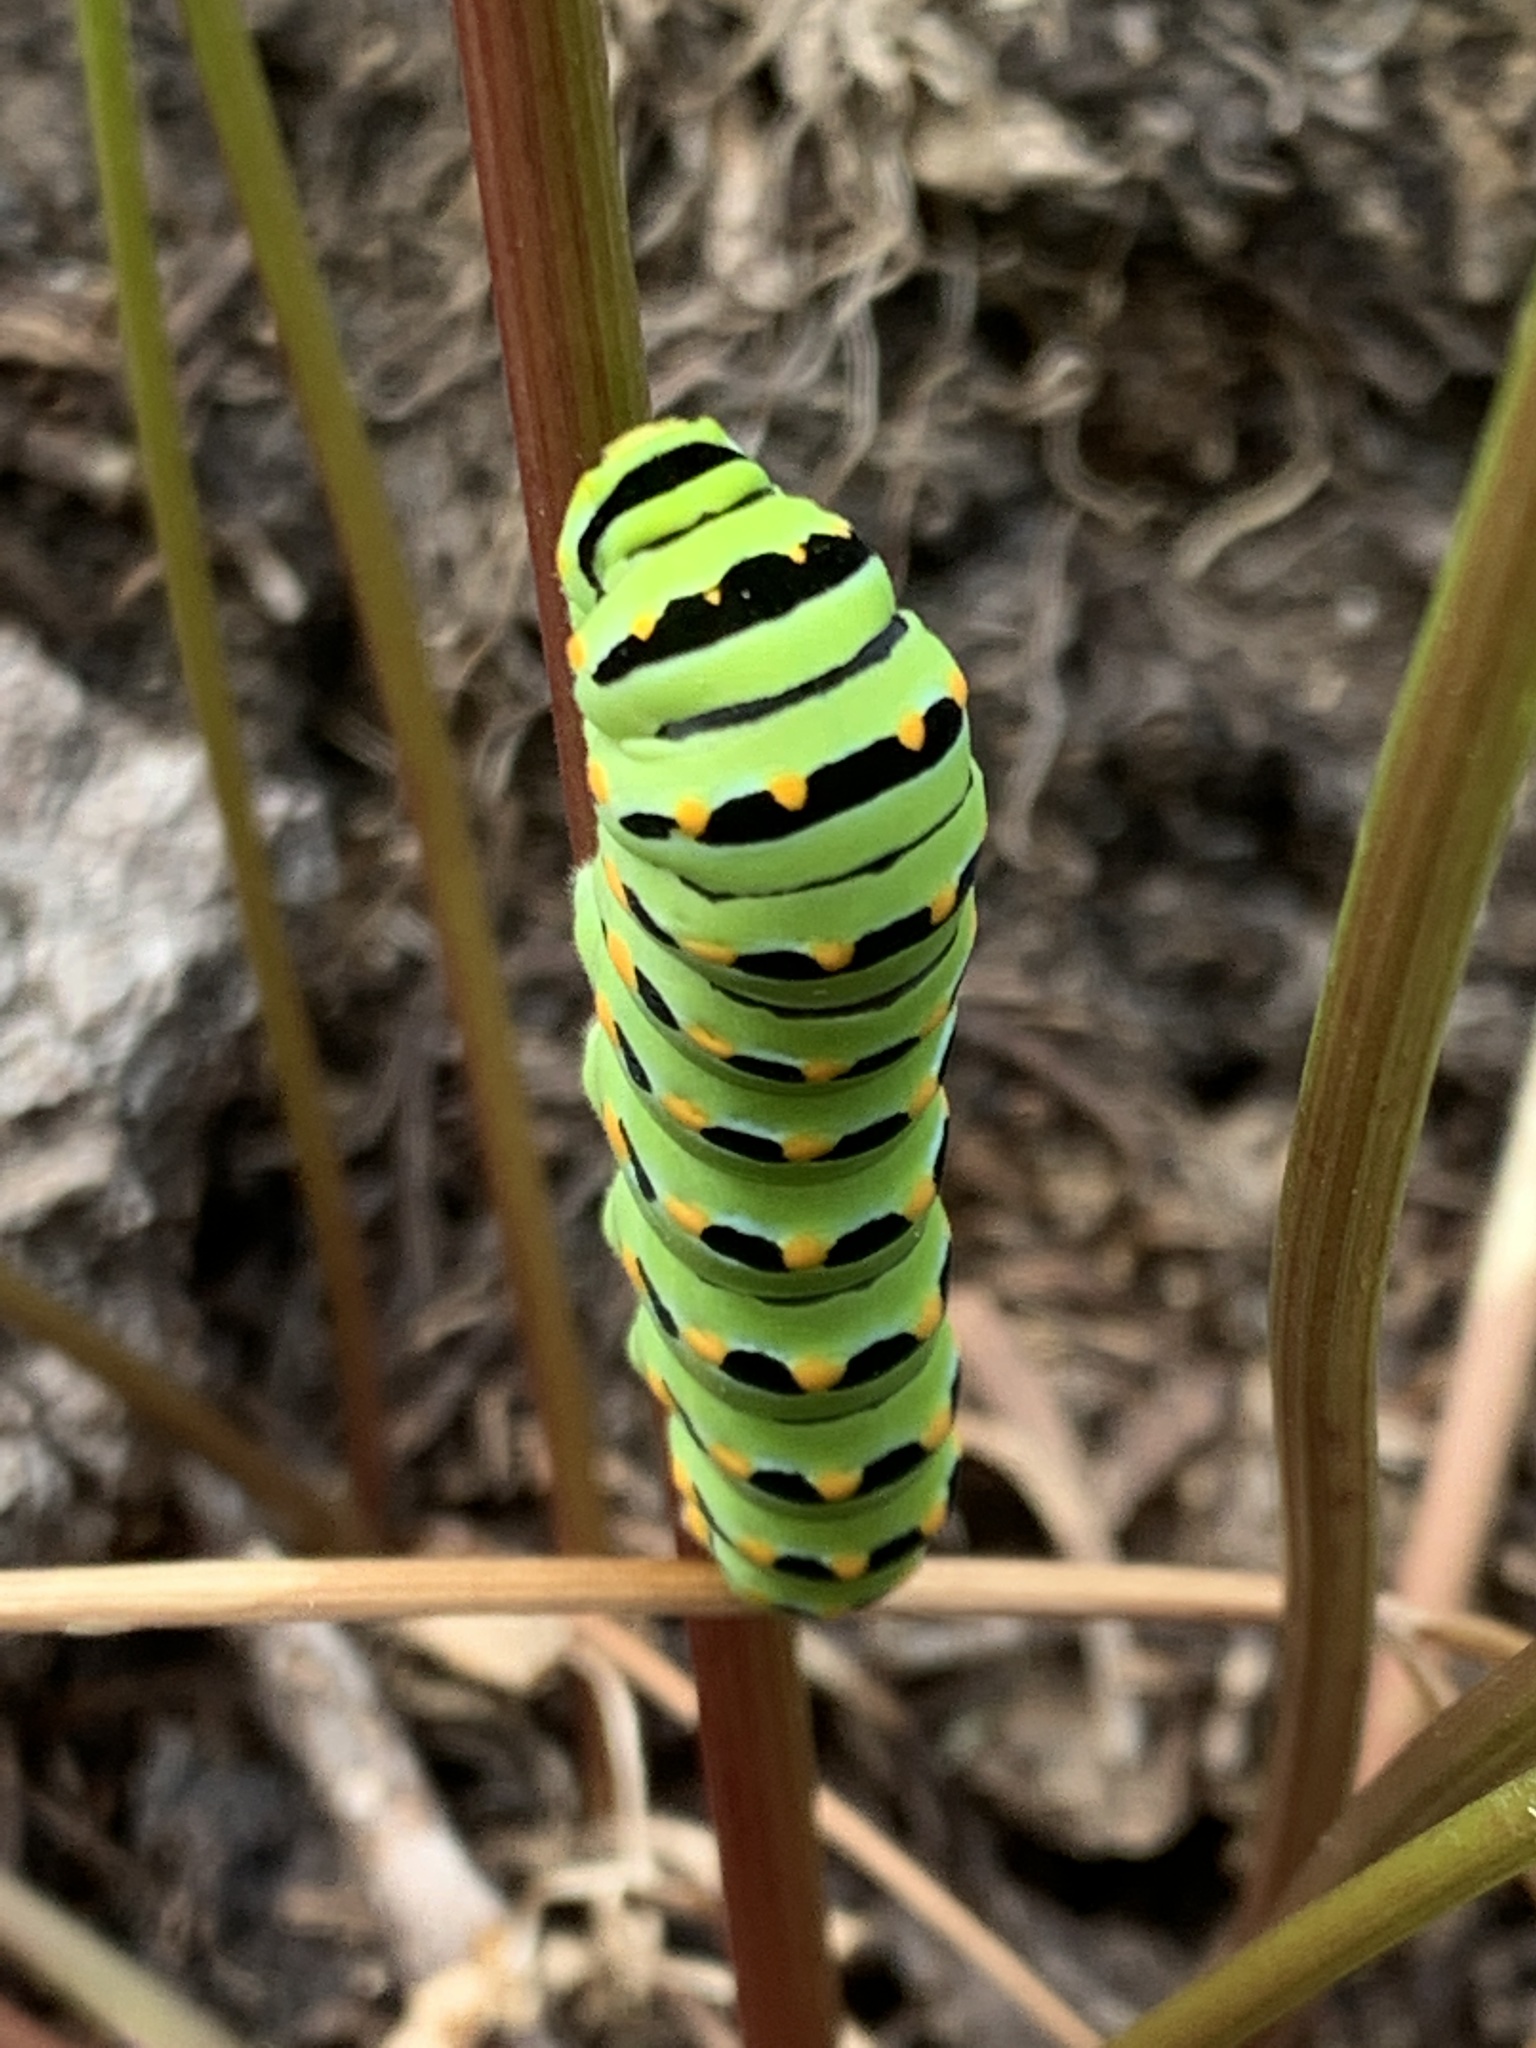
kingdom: Animalia
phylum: Arthropoda
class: Insecta
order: Lepidoptera
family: Papilionidae
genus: Papilio
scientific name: Papilio zelicaon
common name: Anise swallowtail
